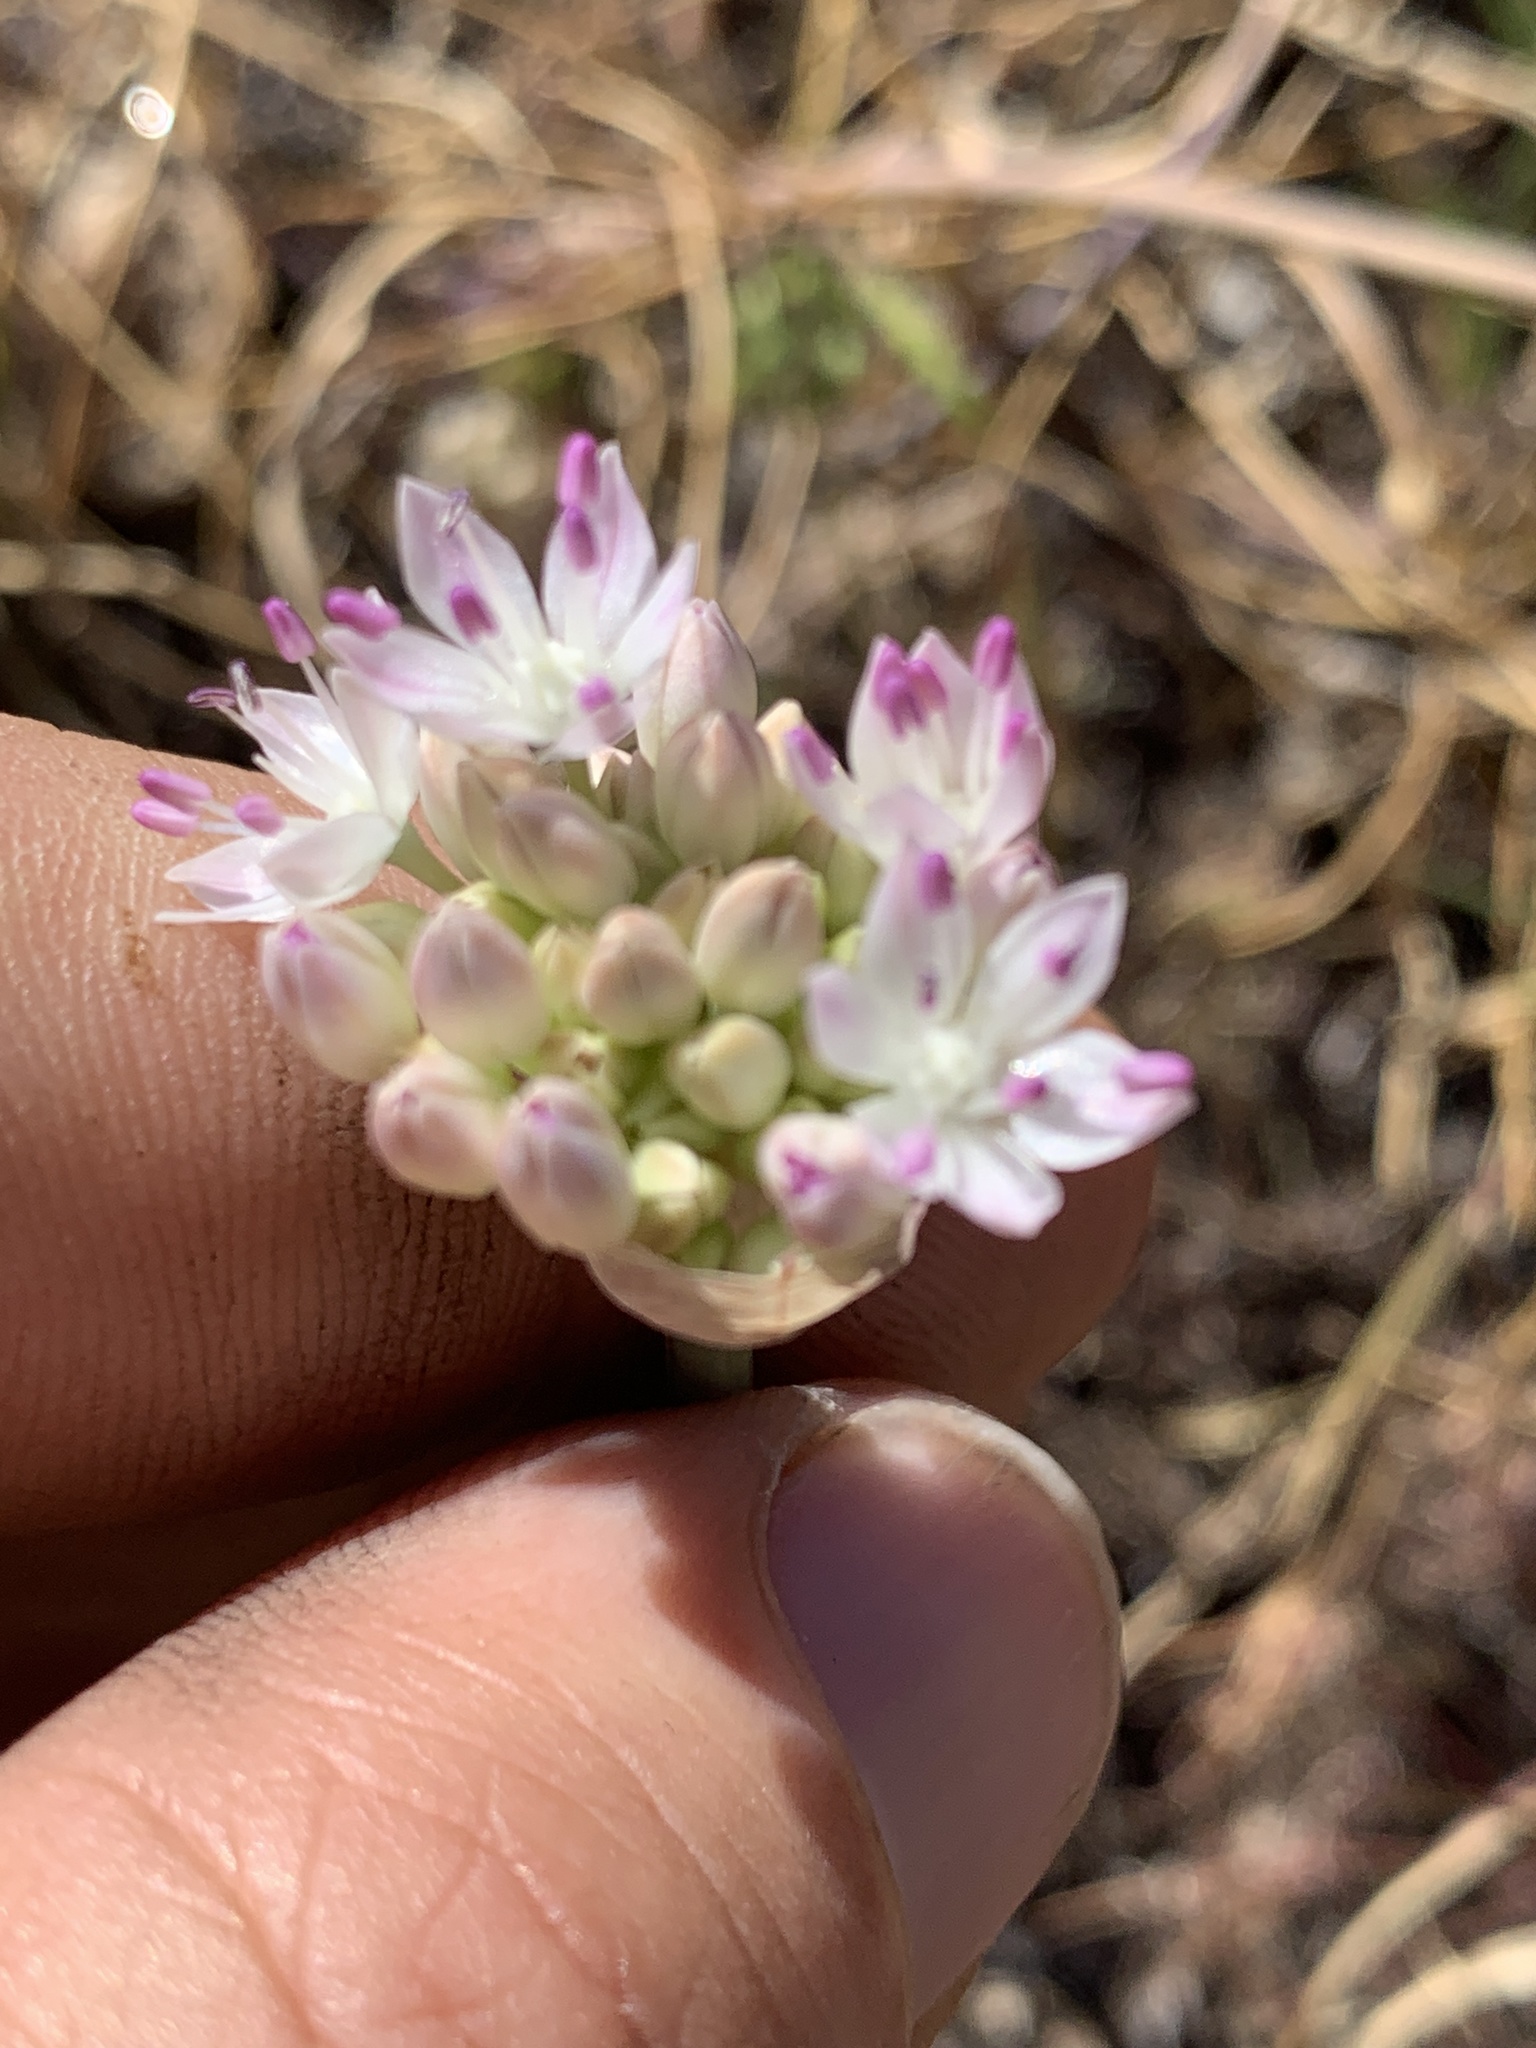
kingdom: Plantae
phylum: Tracheophyta
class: Liliopsida
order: Asparagales
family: Amaryllidaceae
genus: Allium
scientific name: Allium amplectens
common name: Narrow-leaved onion
